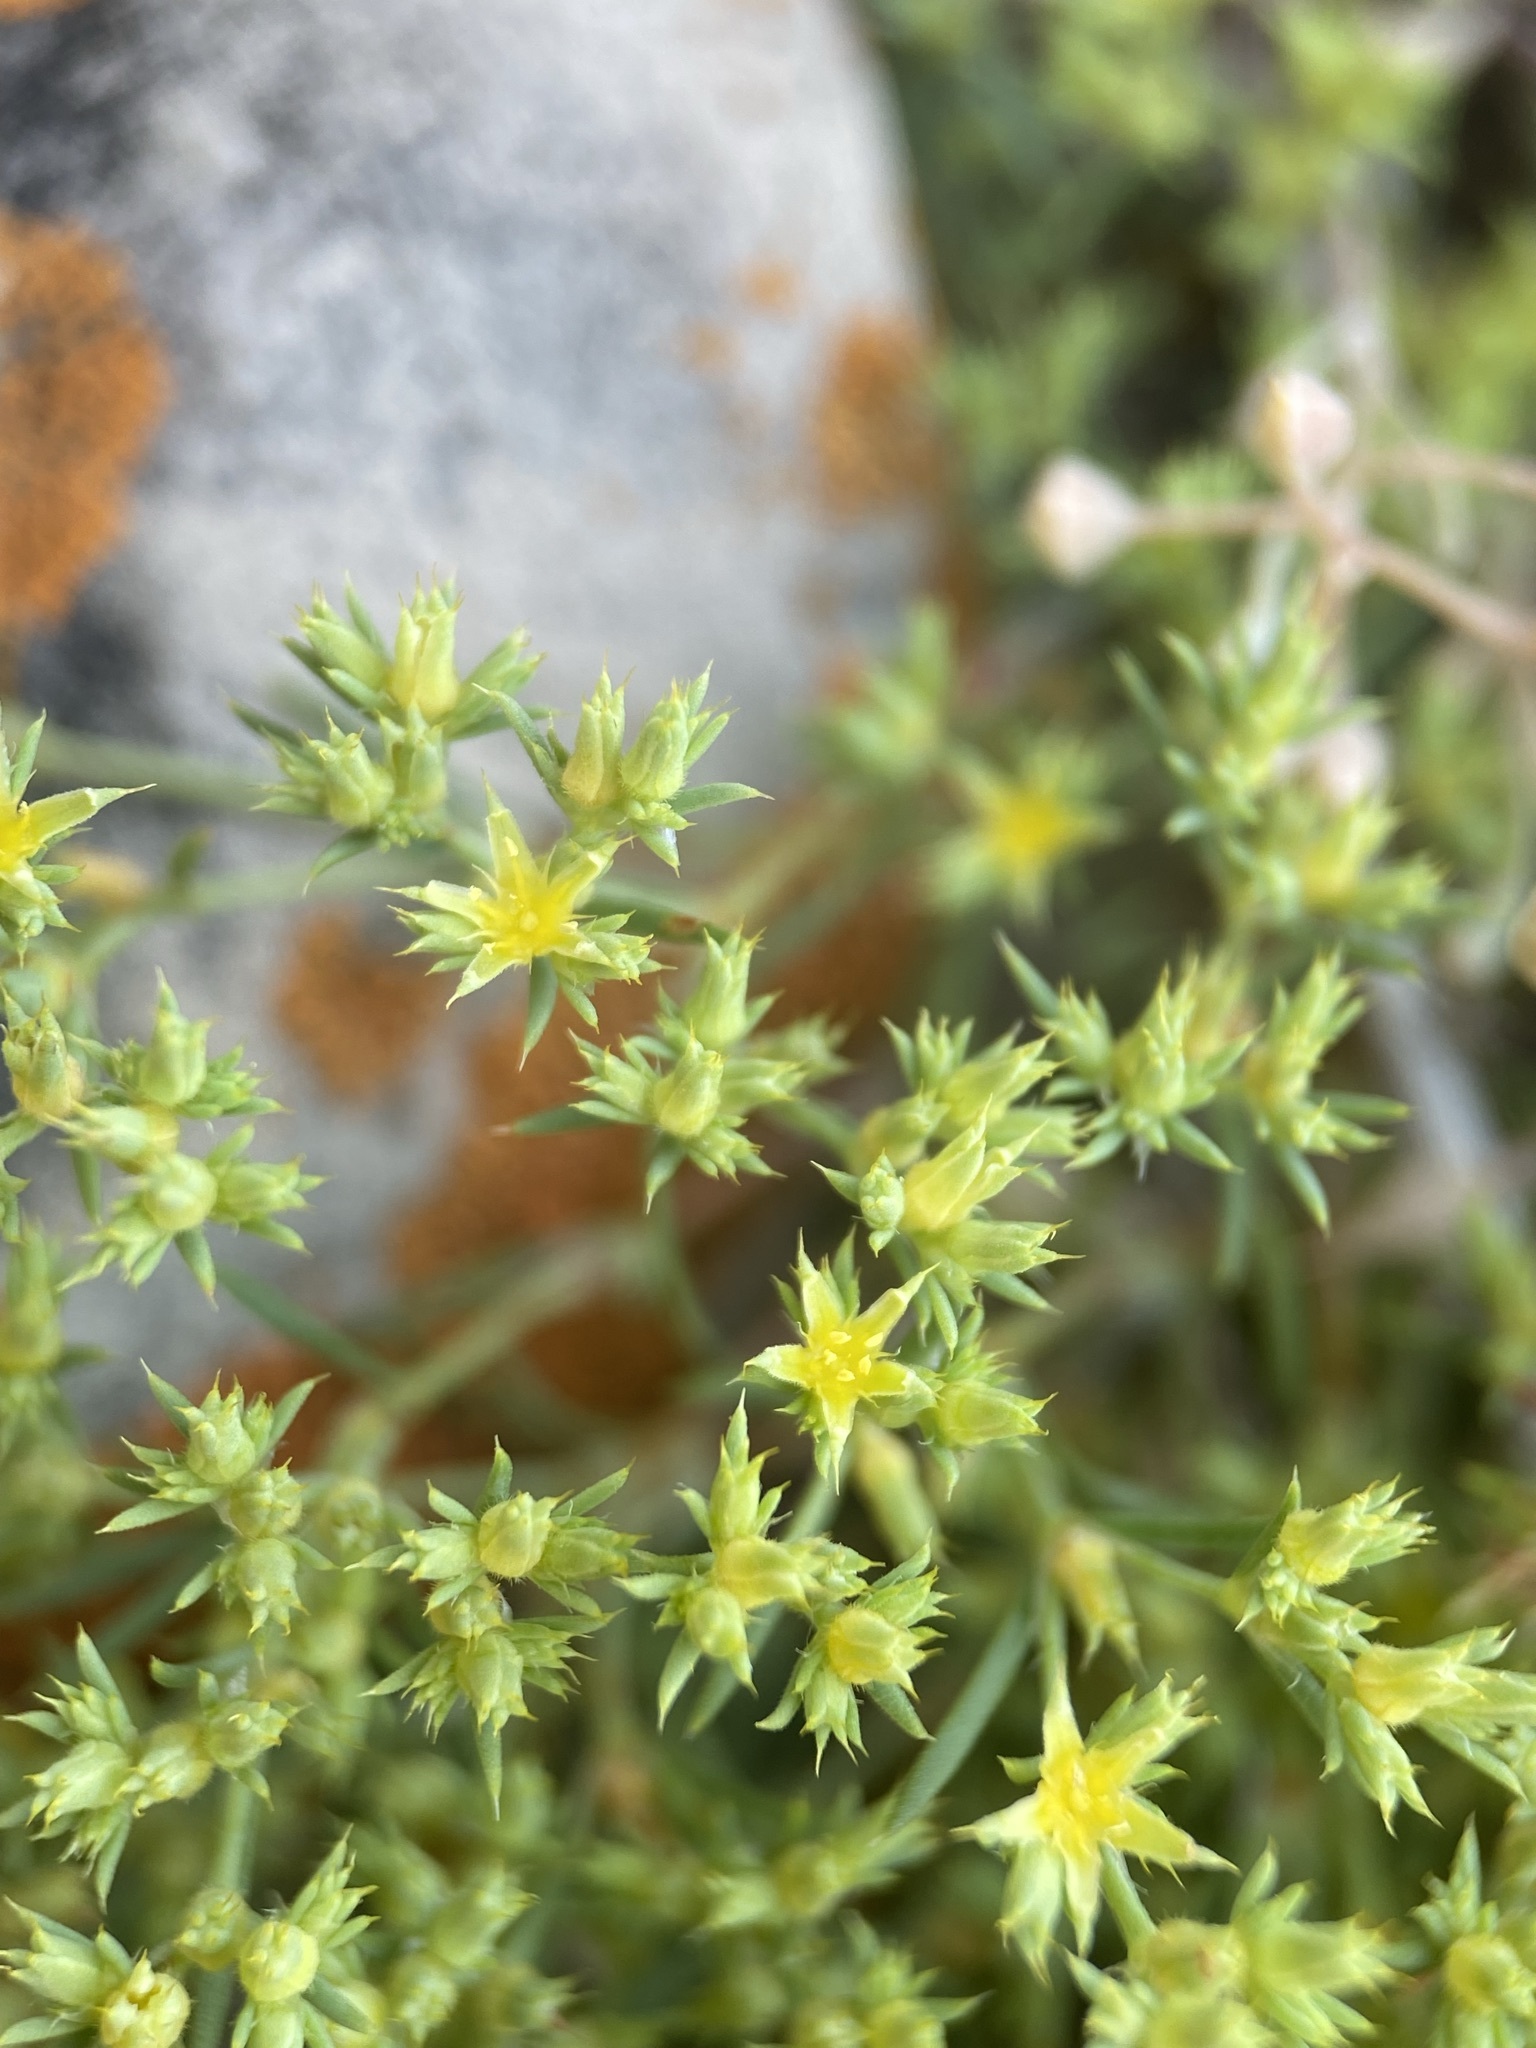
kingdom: Plantae
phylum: Tracheophyta
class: Magnoliopsida
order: Caryophyllales
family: Caryophyllaceae
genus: Paronychia
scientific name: Paronychia depressa
